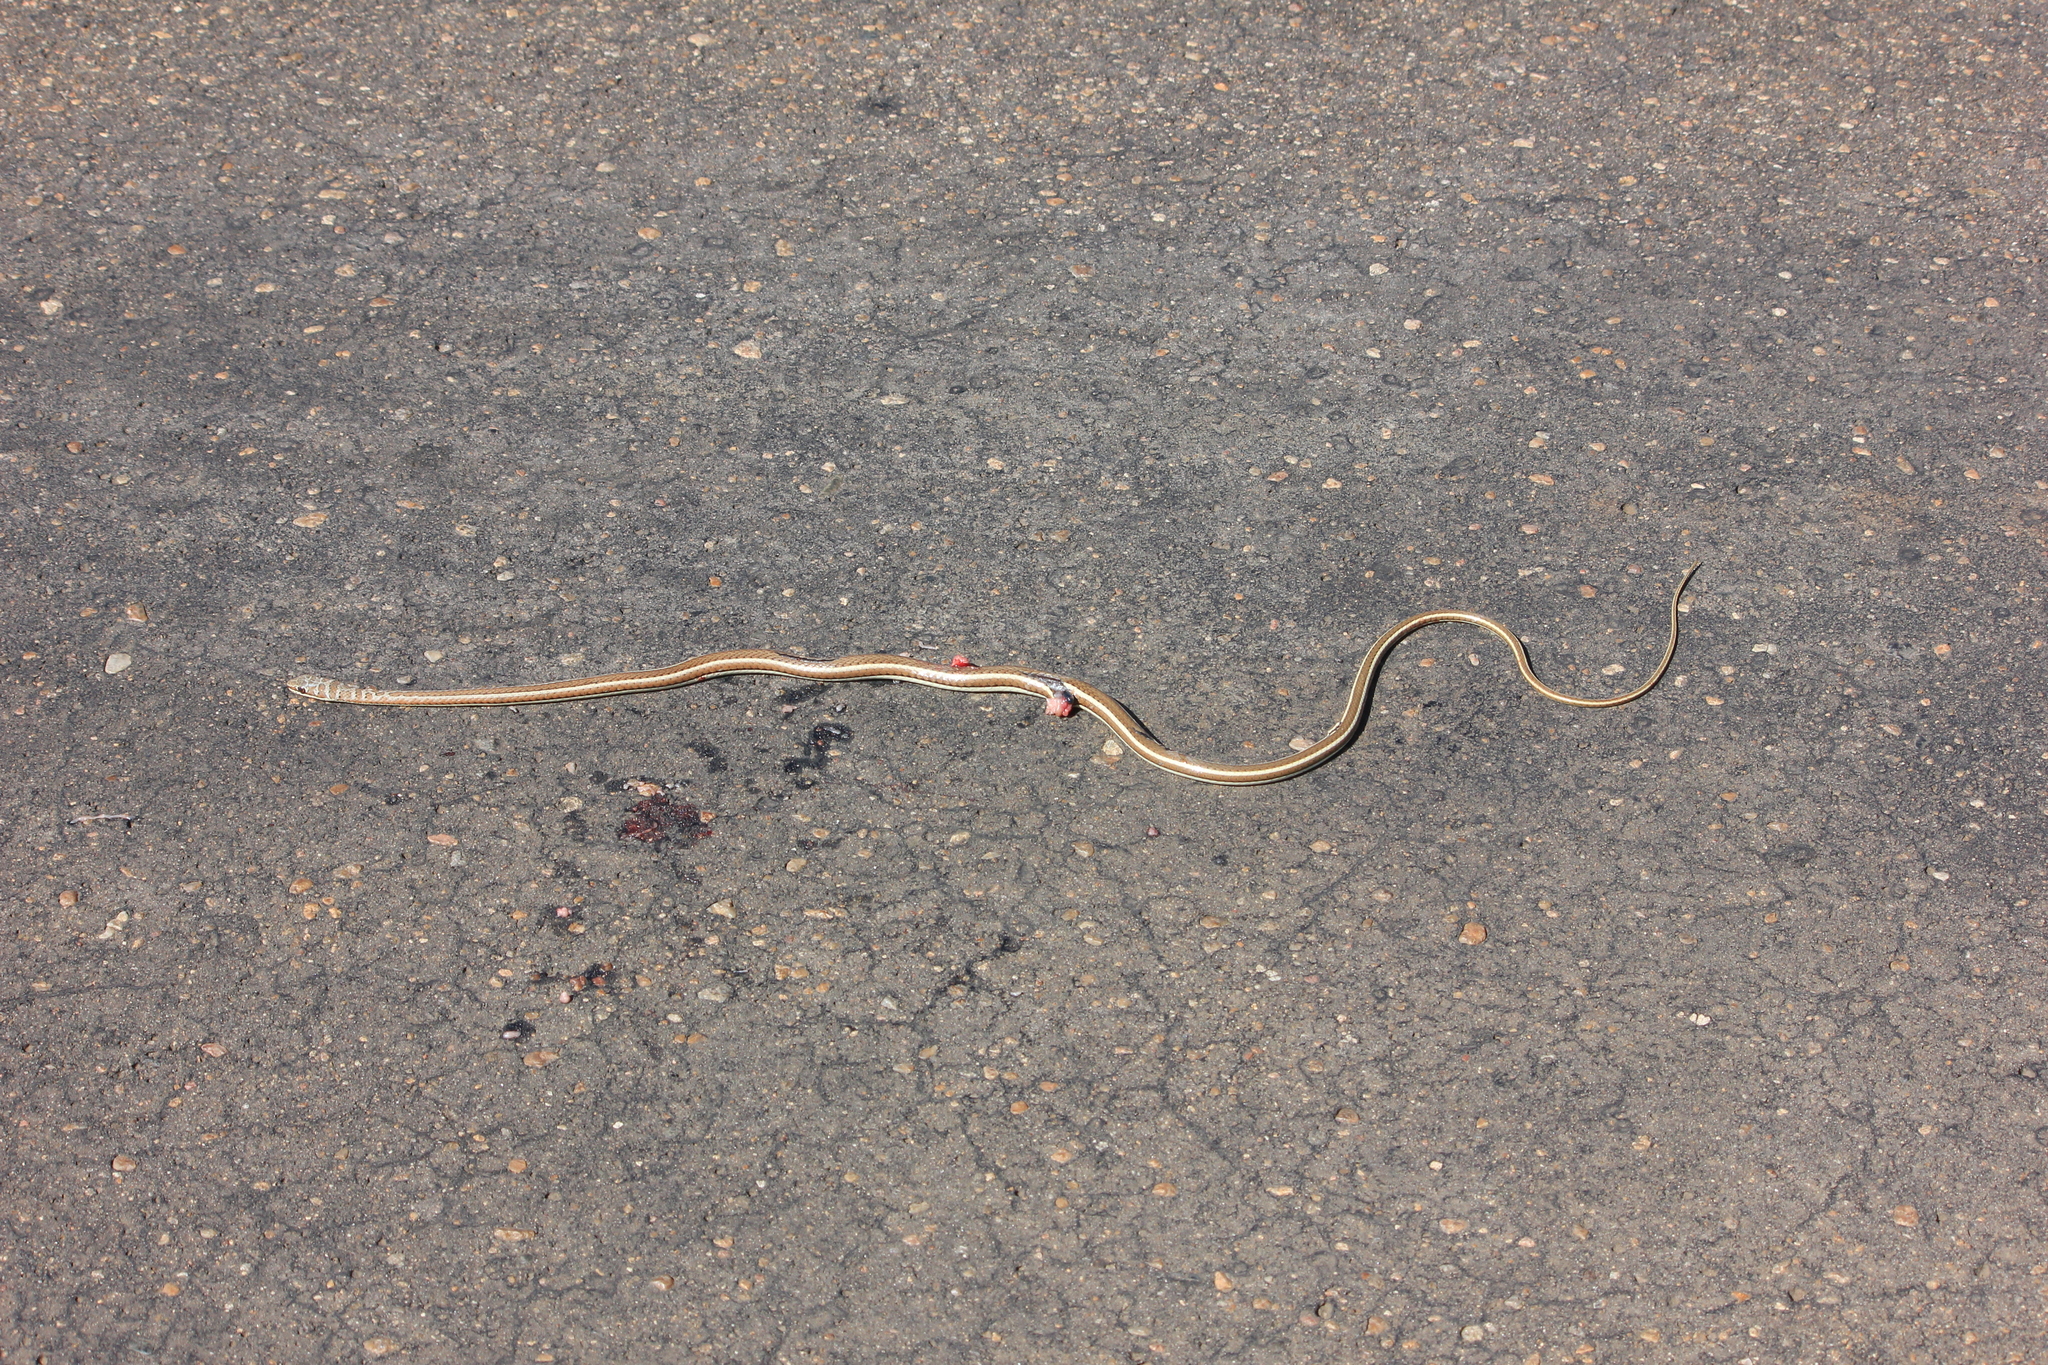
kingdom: Animalia
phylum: Chordata
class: Squamata
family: Psammophiidae
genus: Psammophis
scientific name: Psammophis subtaeniatus
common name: Stripe-bellied sand snake
